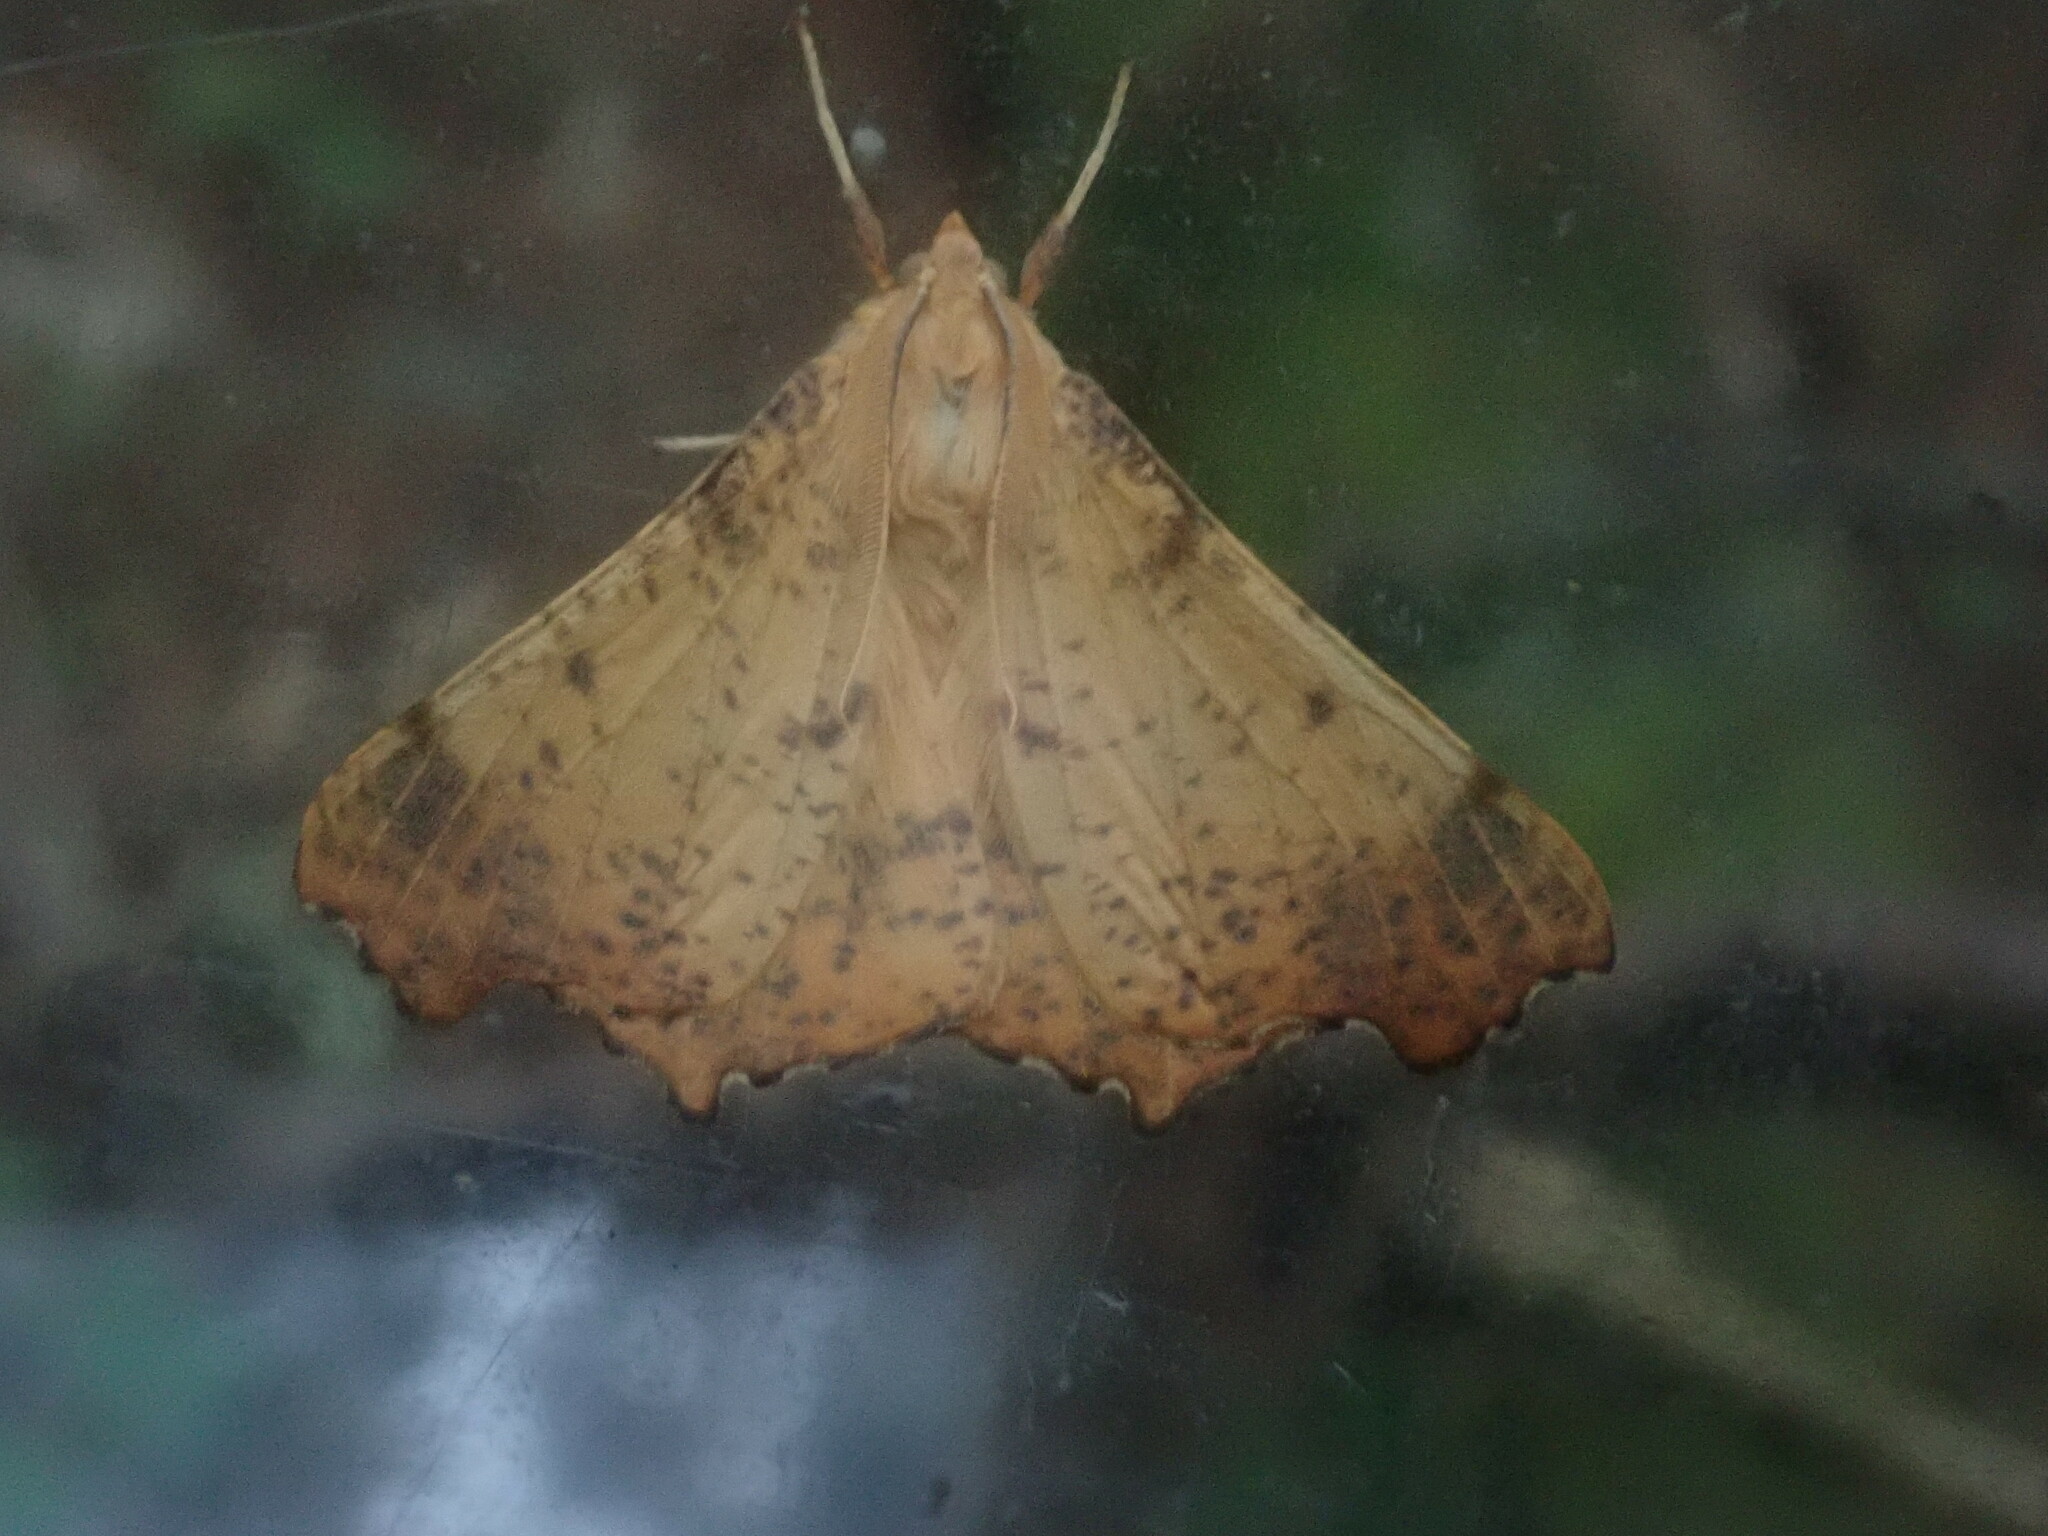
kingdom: Animalia
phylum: Arthropoda
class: Insecta
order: Lepidoptera
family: Geometridae
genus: Ennomos
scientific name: Ennomos magnaria
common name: Maple spanworm
